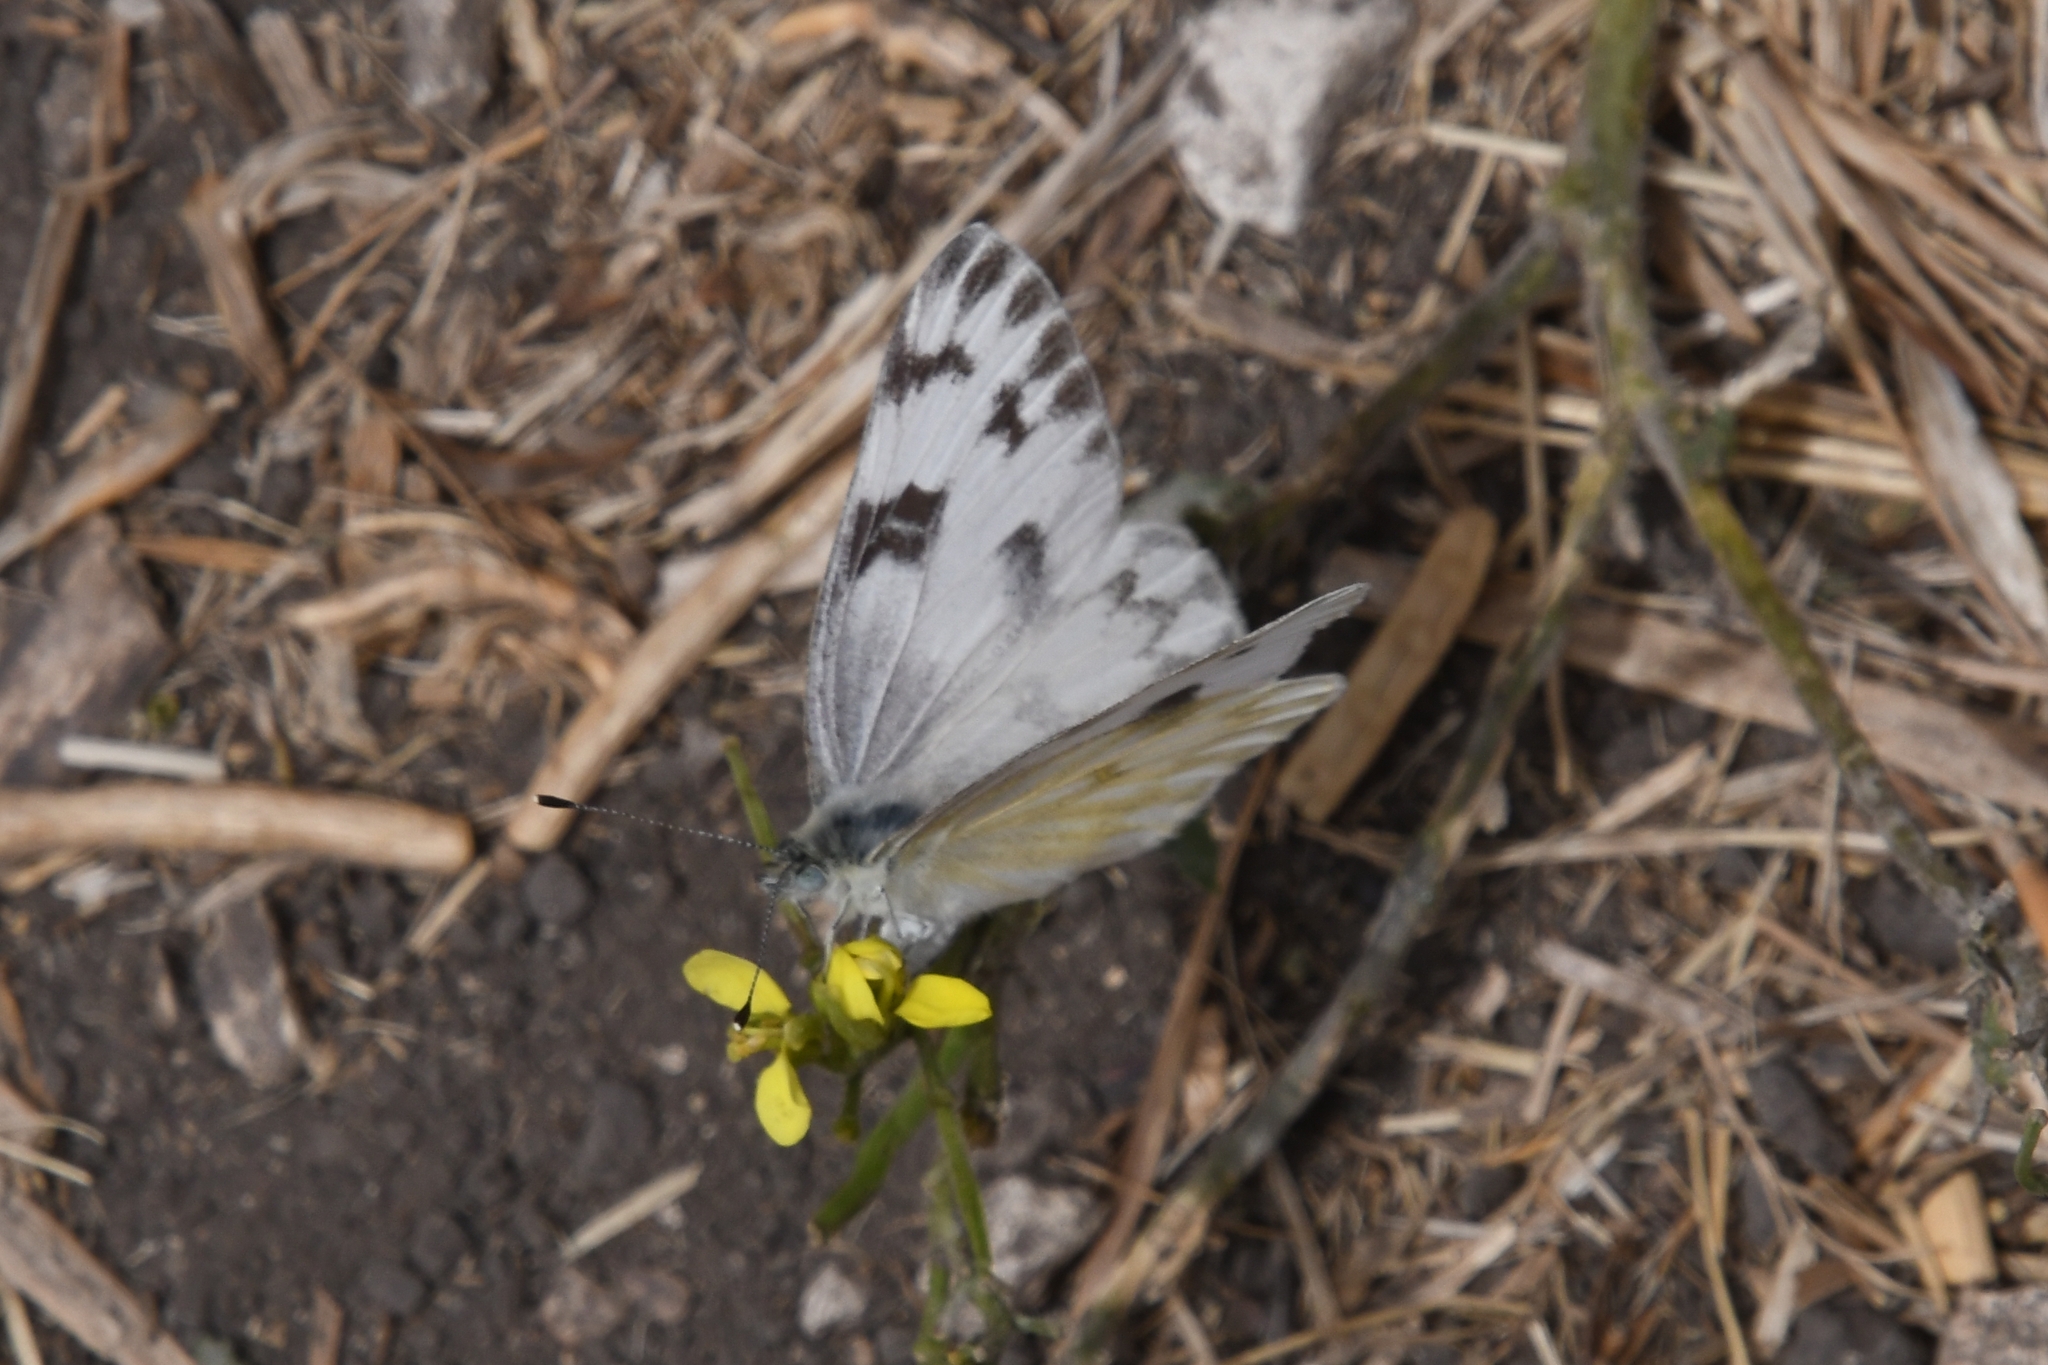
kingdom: Animalia
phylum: Arthropoda
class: Insecta
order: Lepidoptera
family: Pieridae
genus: Pontia
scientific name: Pontia protodice
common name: Checkered white
